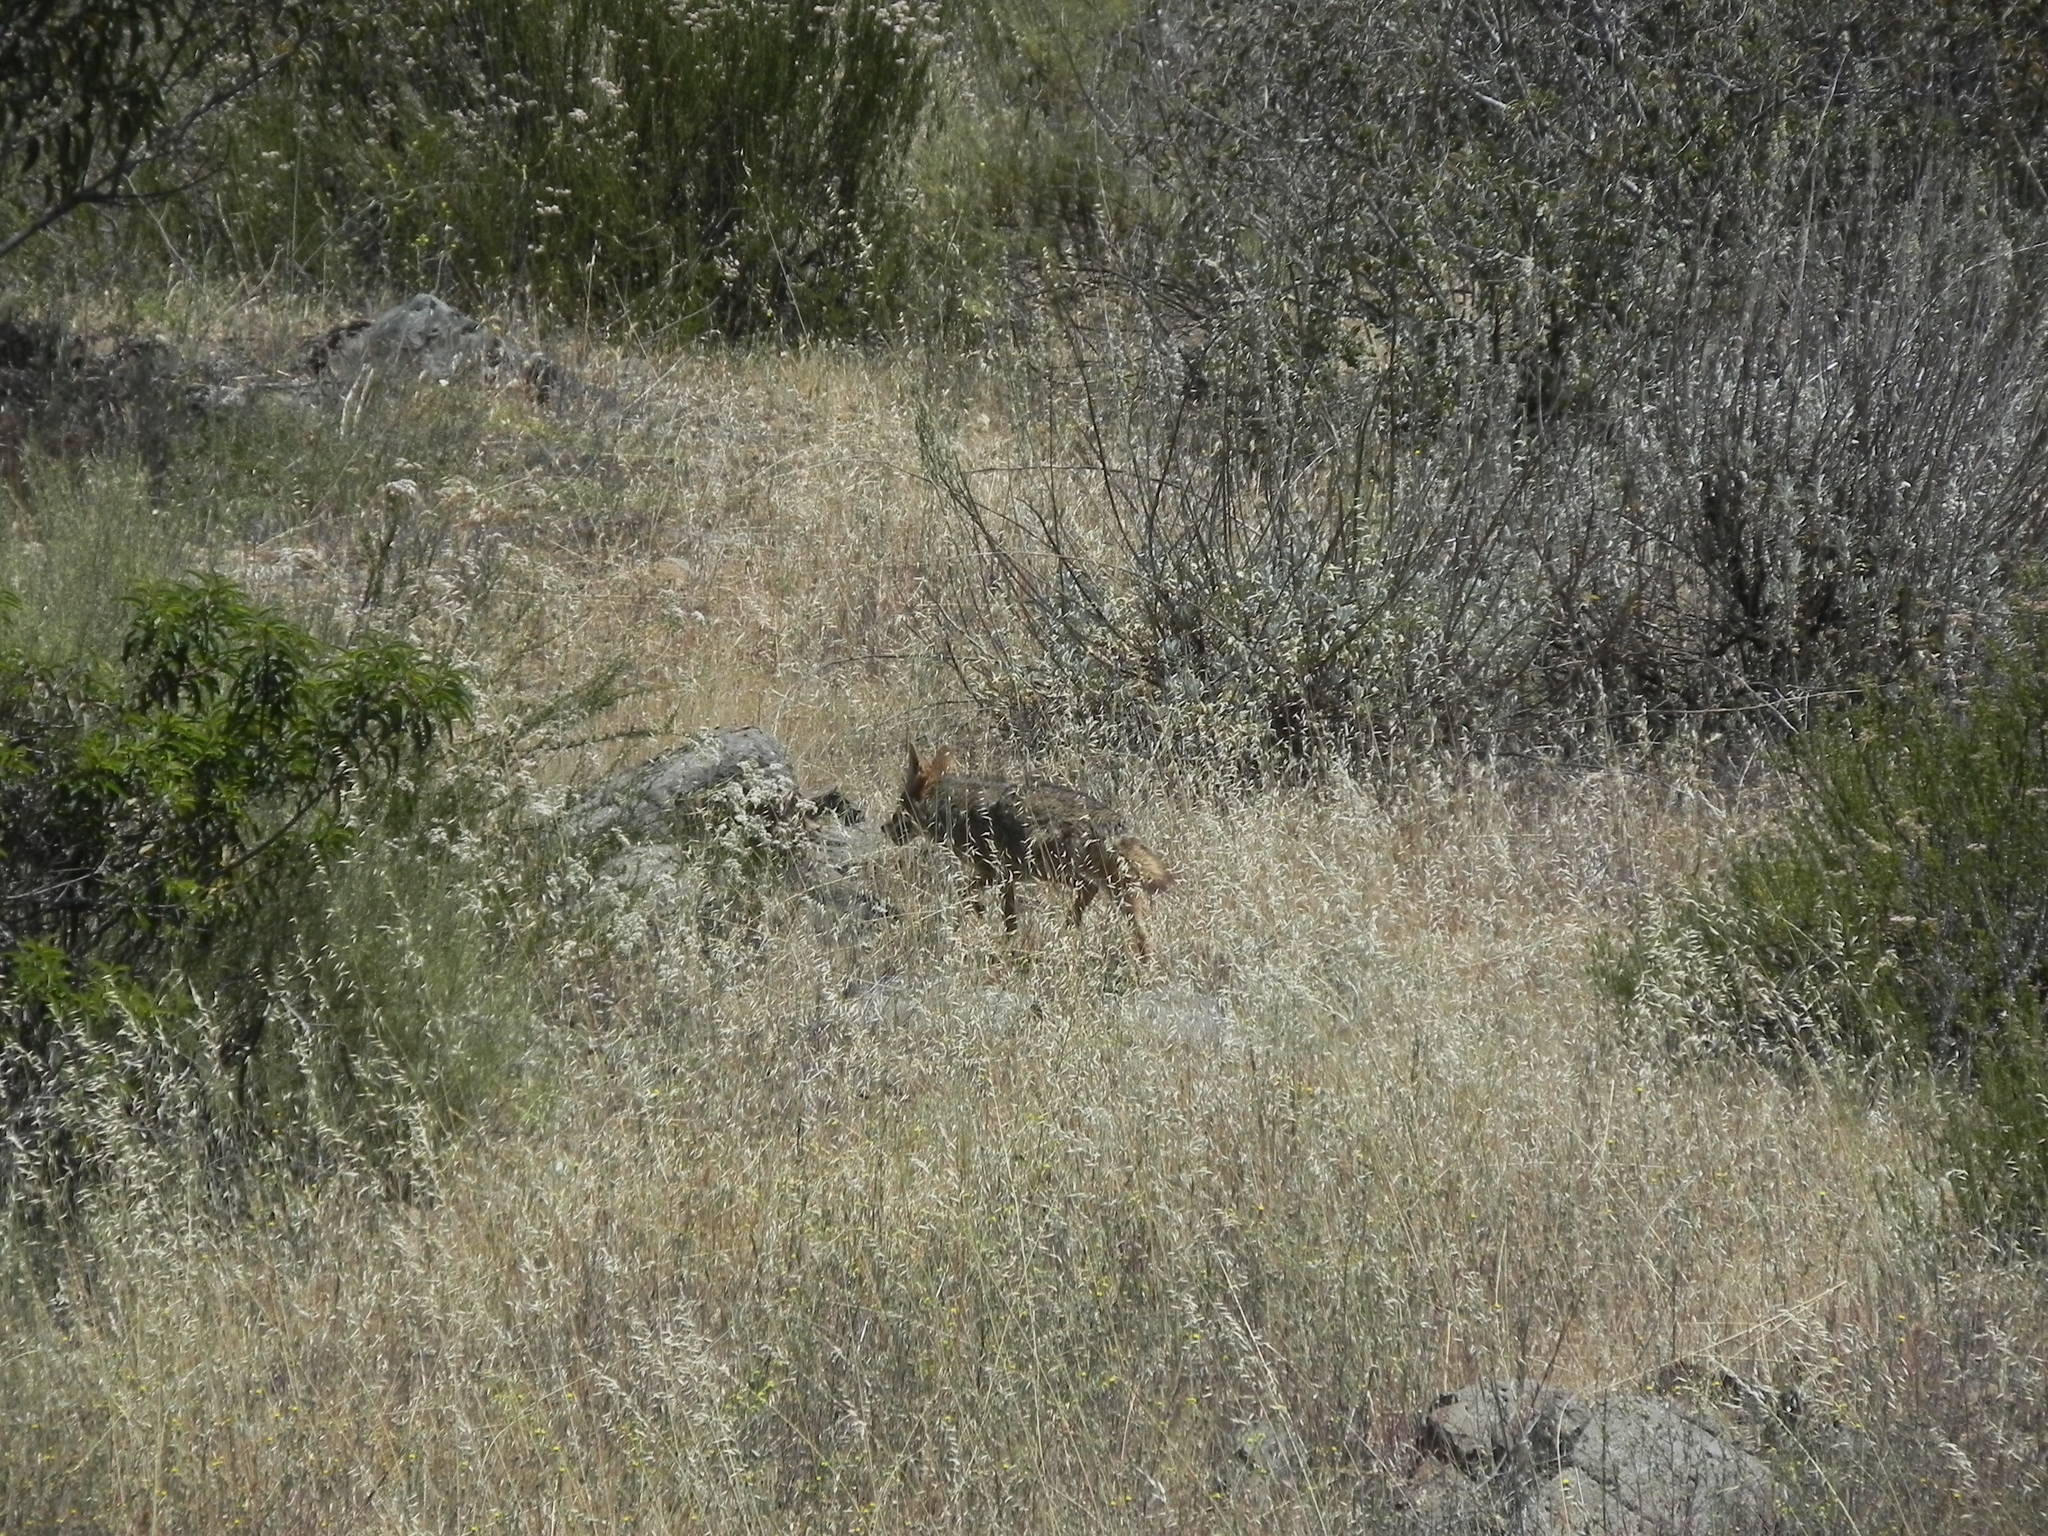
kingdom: Animalia
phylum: Chordata
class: Mammalia
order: Carnivora
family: Canidae
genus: Canis
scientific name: Canis latrans
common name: Coyote
